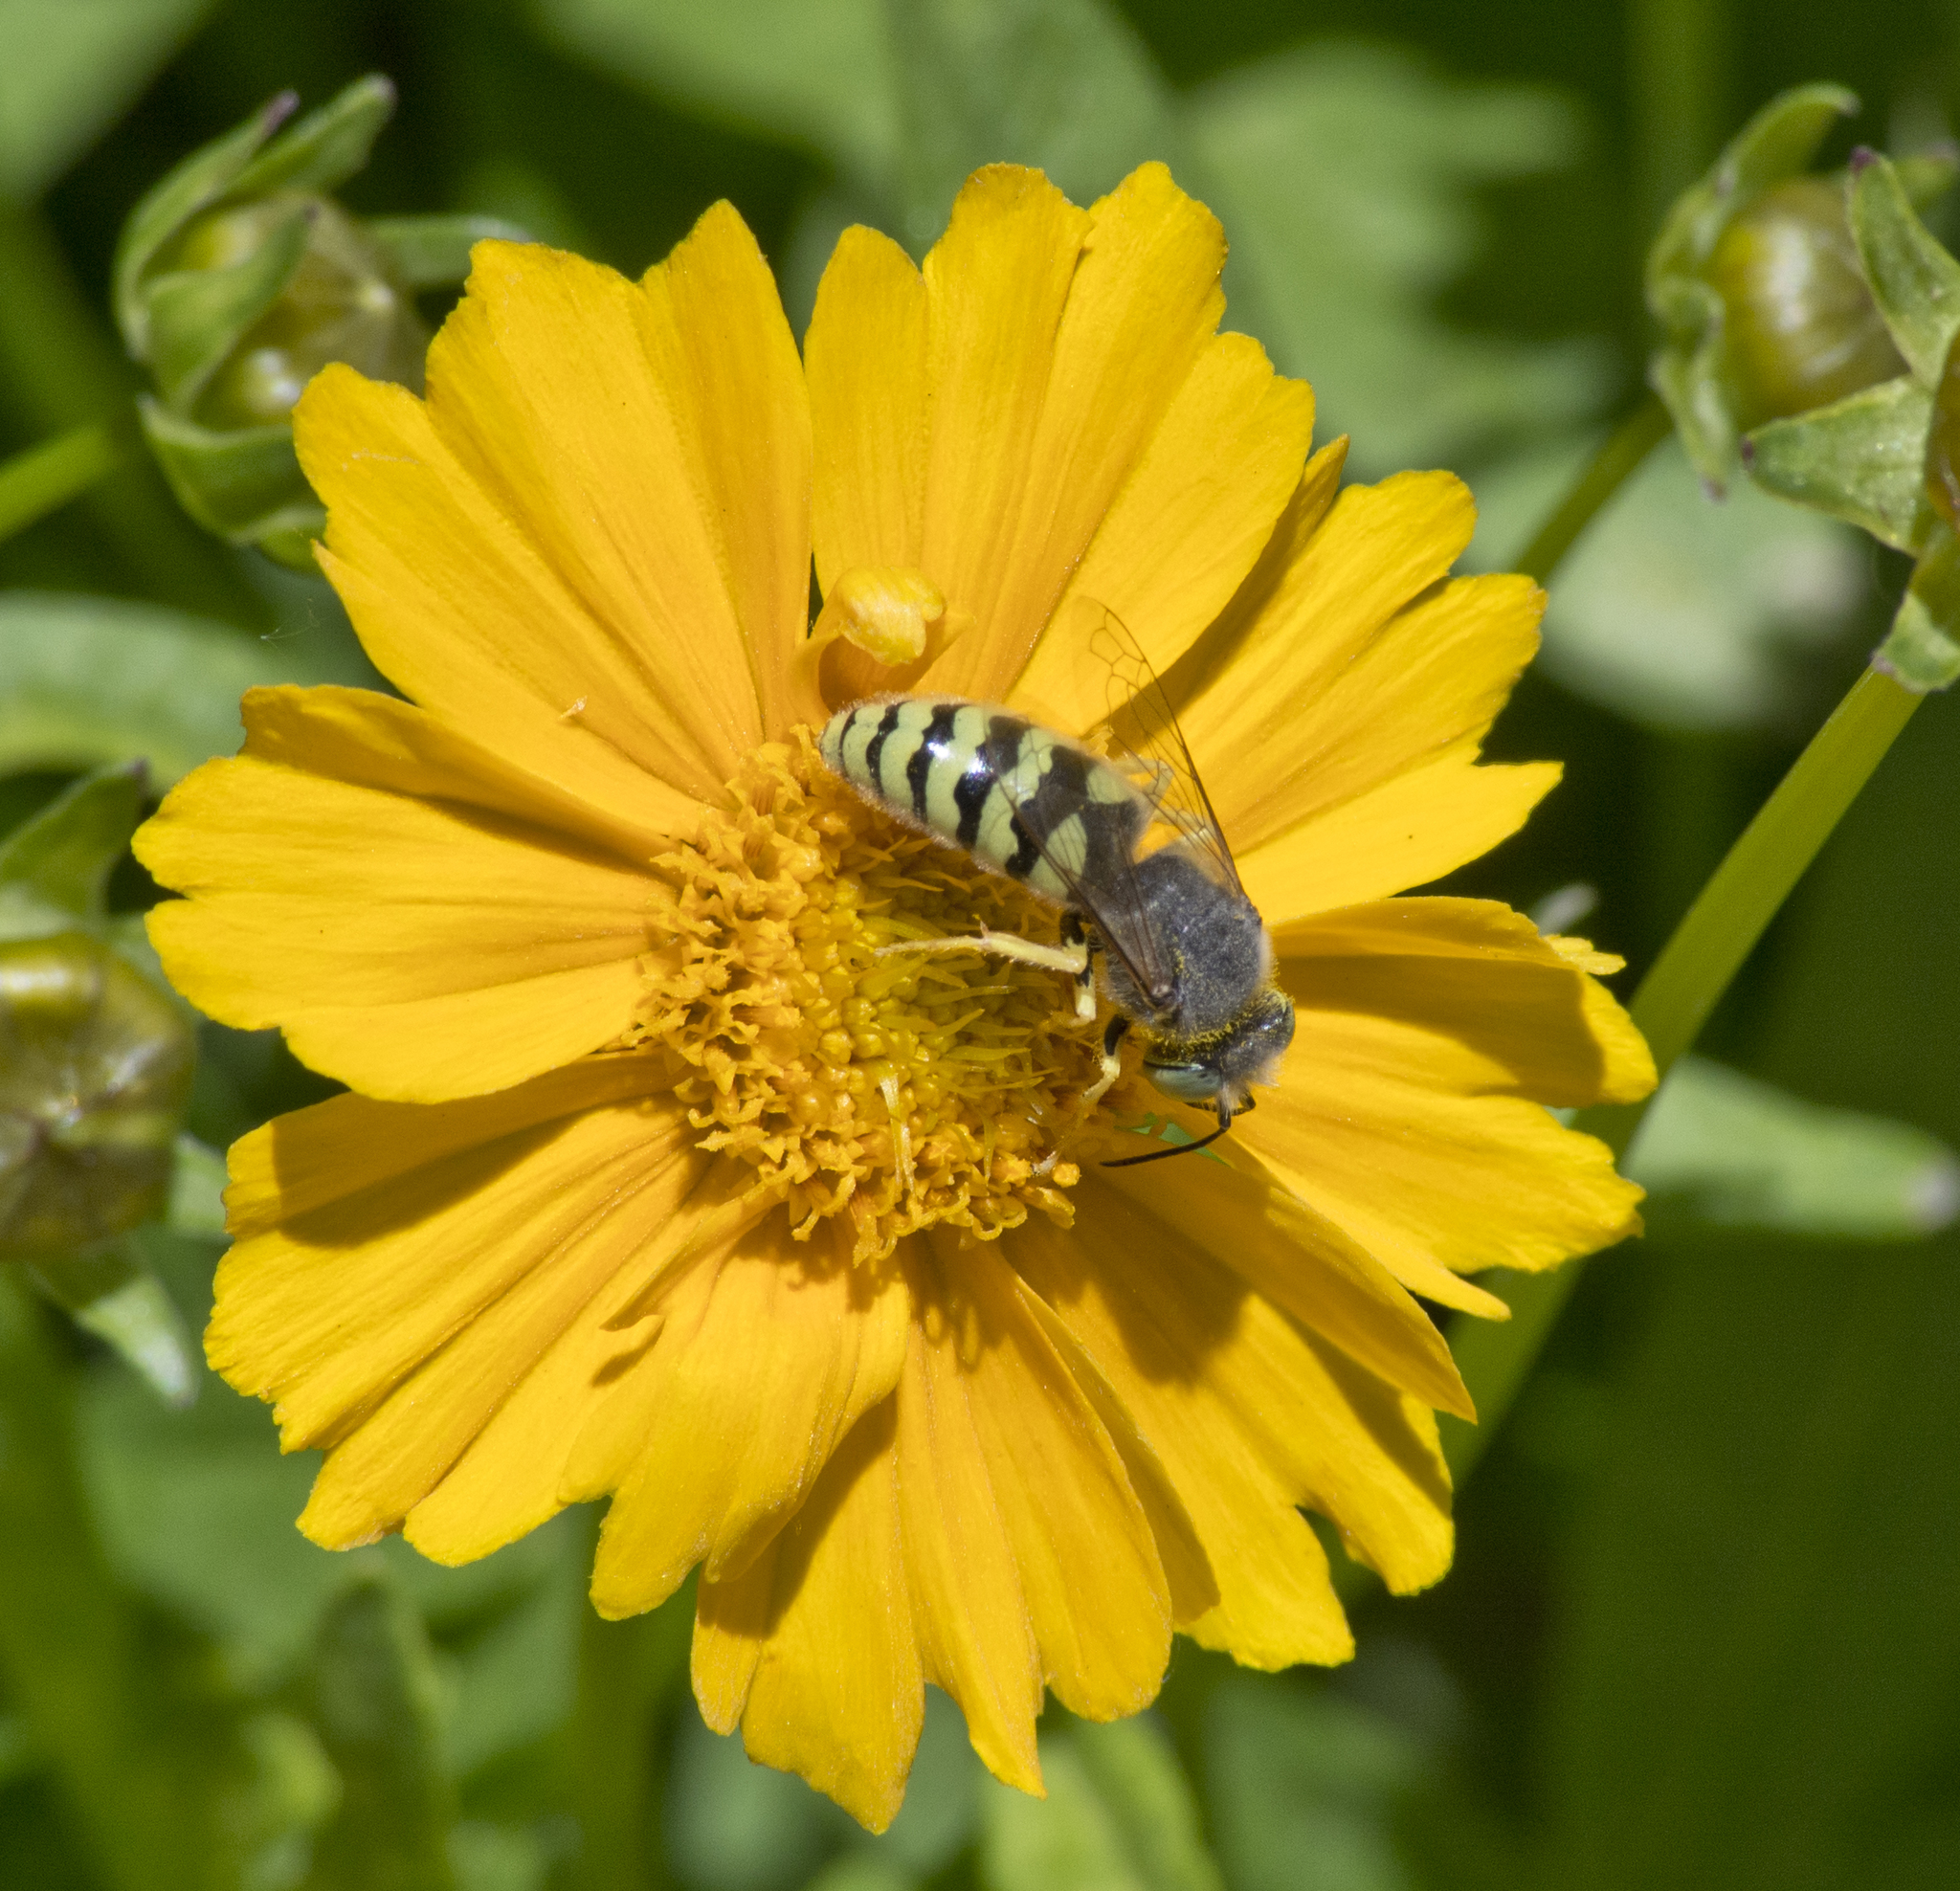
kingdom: Animalia
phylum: Arthropoda
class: Insecta
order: Hymenoptera
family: Crabronidae
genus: Bembix
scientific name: Bembix americana
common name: American sand wasp
